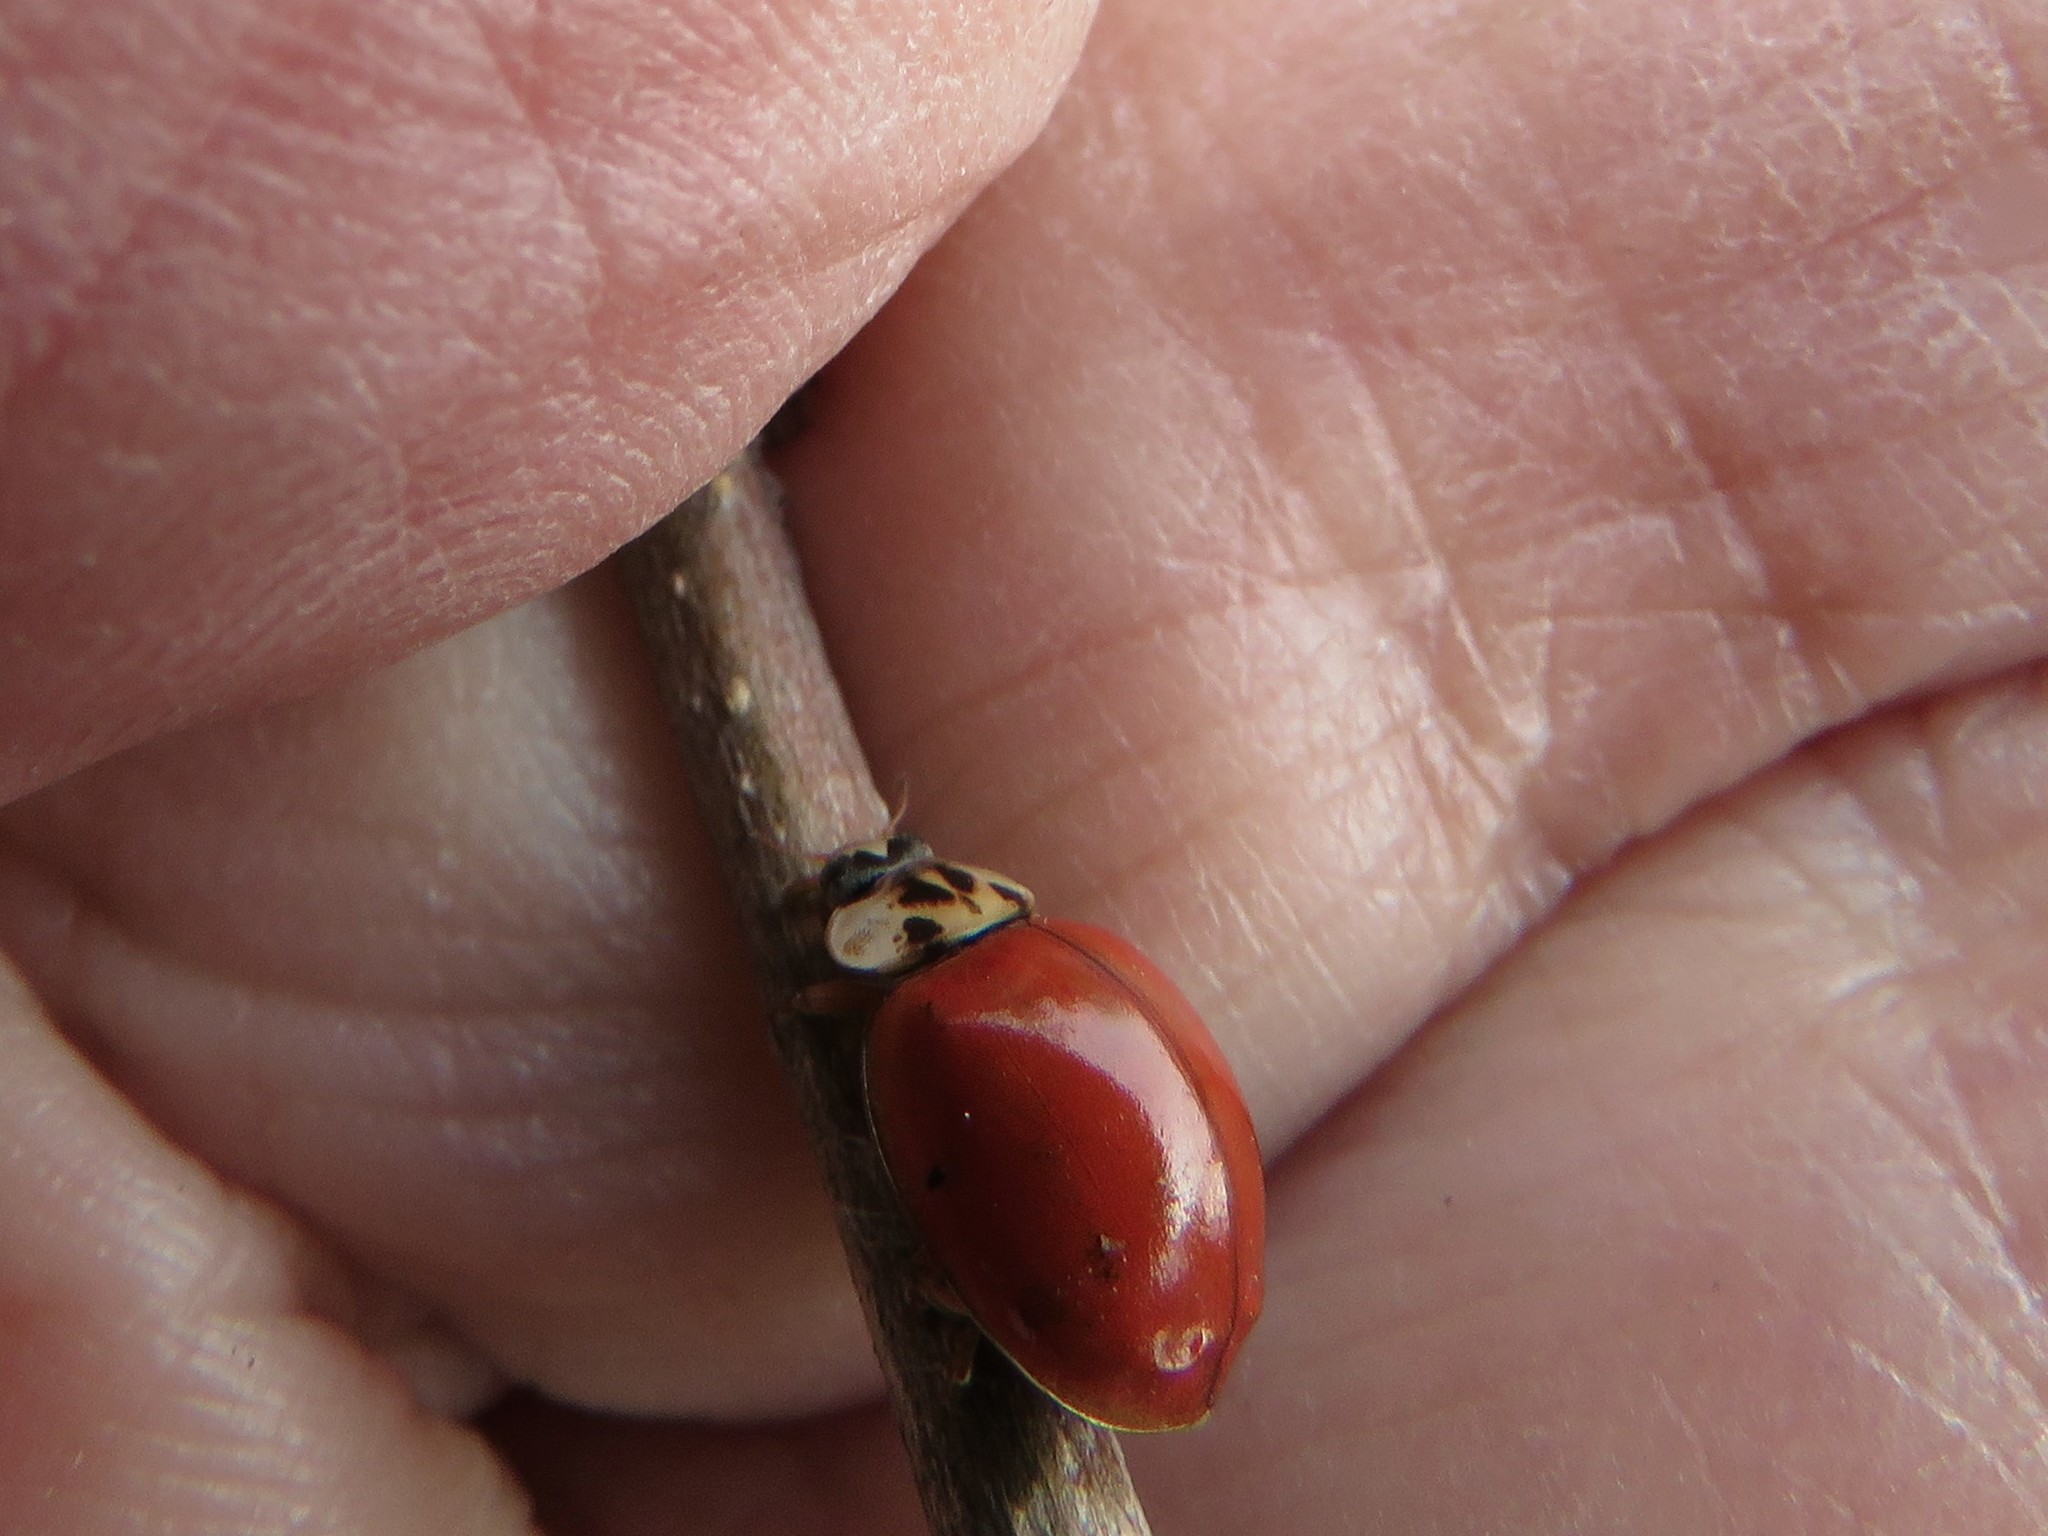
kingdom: Animalia
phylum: Arthropoda
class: Insecta
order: Coleoptera
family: Coccinellidae
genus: Harmonia
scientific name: Harmonia axyridis
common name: Harlequin ladybird
